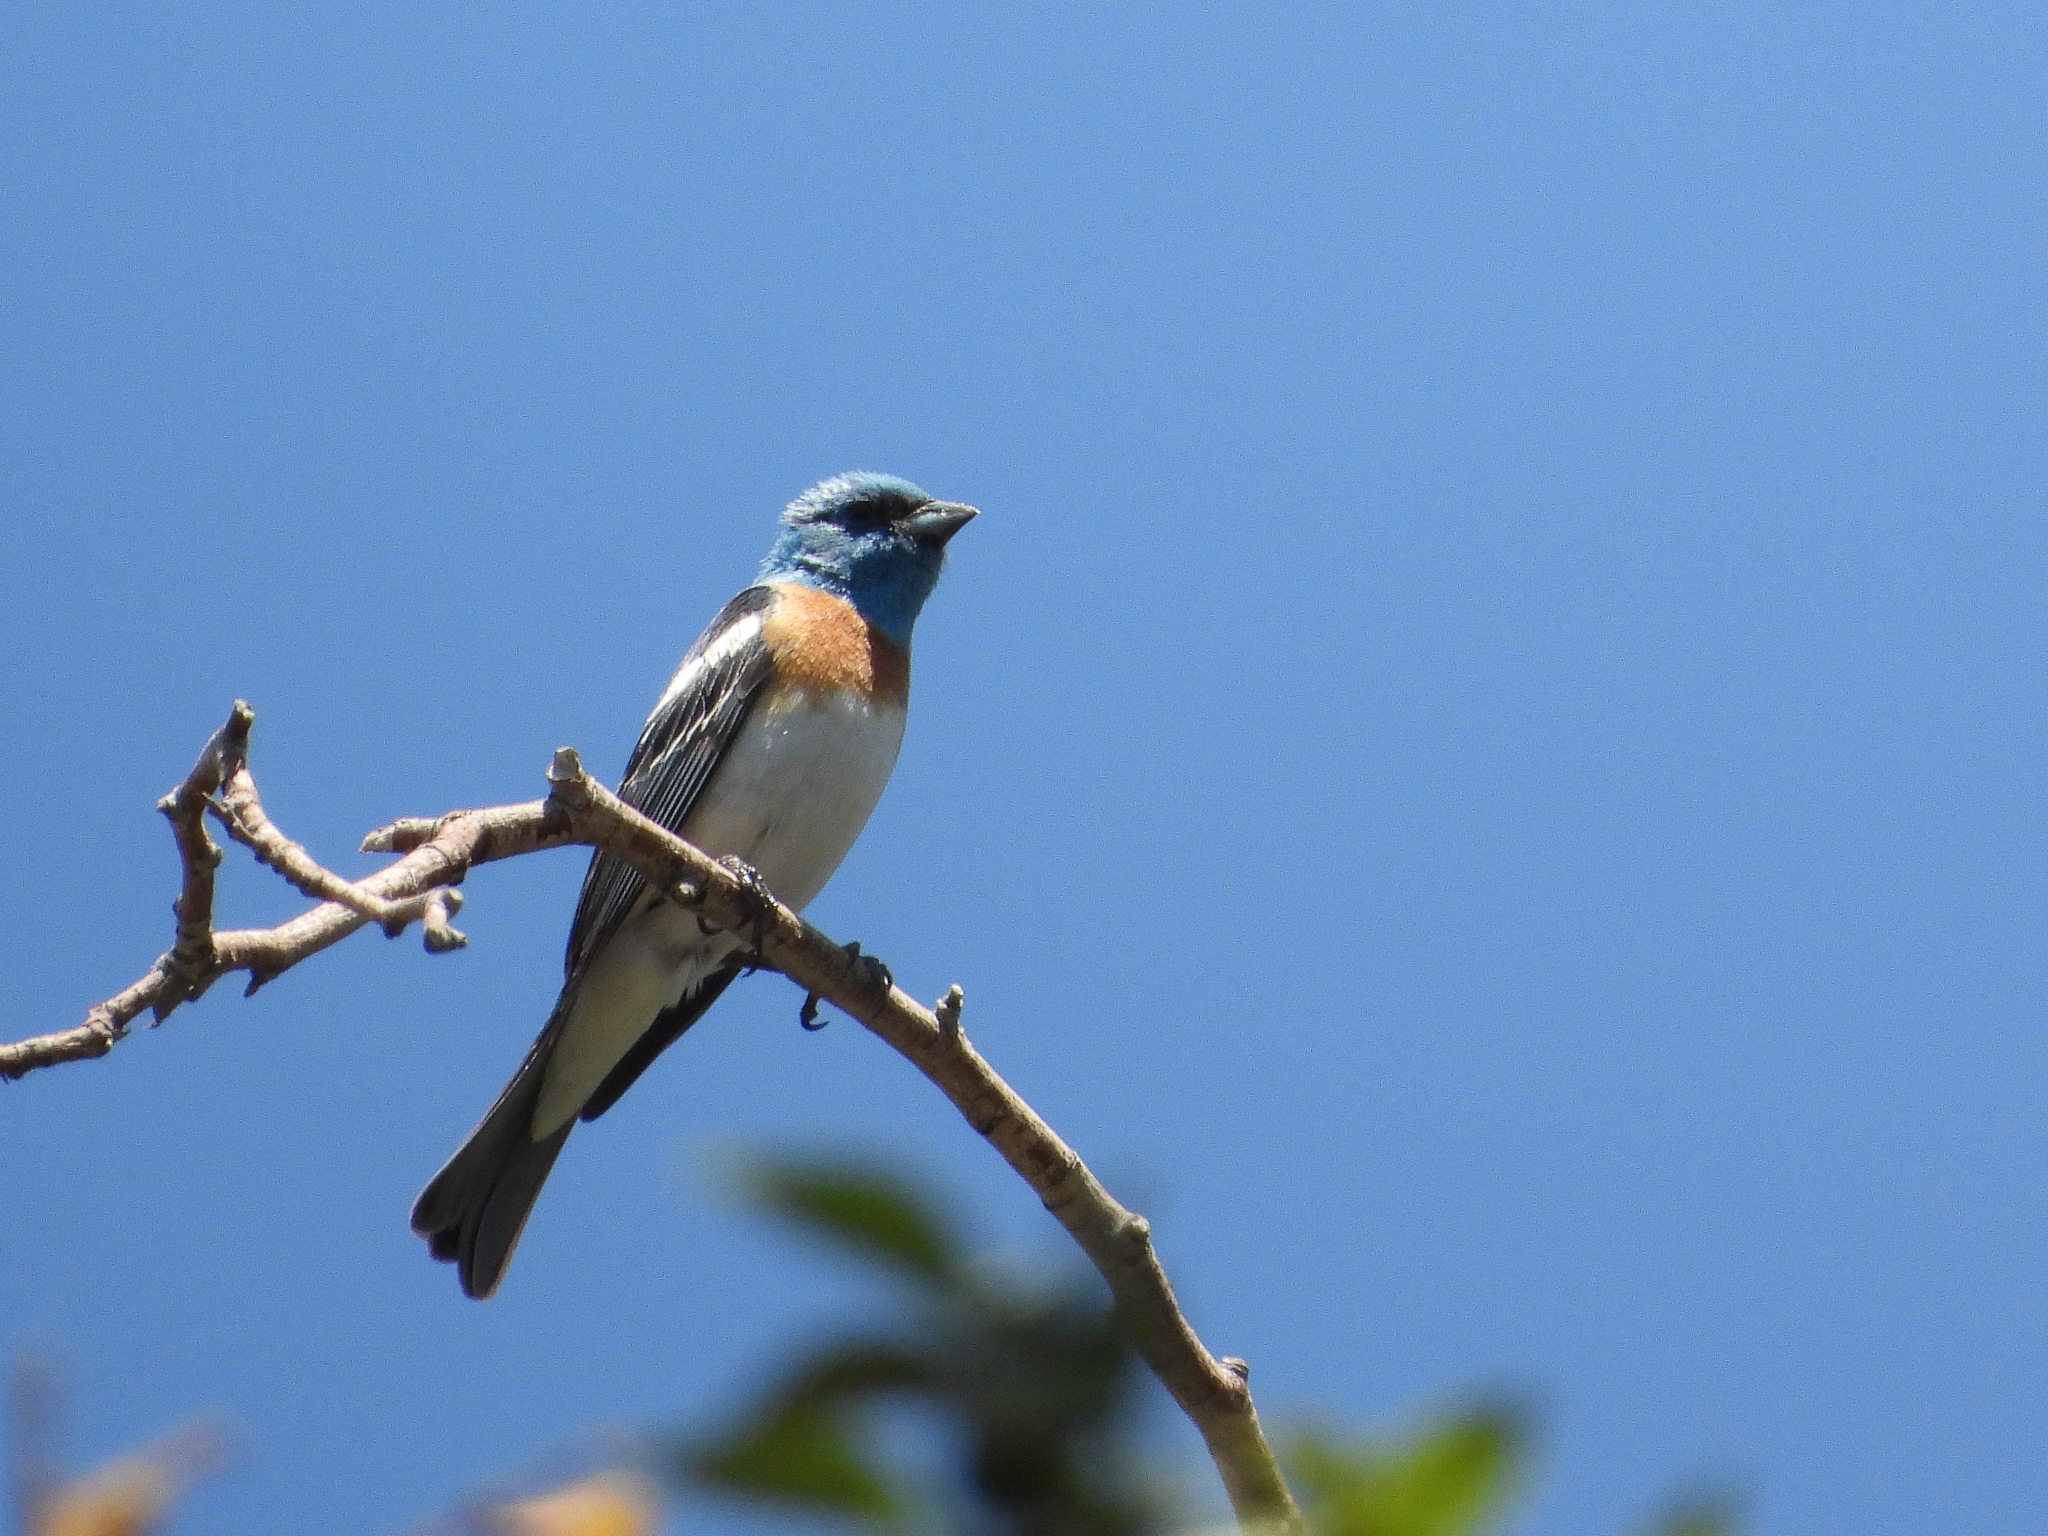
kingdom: Animalia
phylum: Chordata
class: Aves
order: Passeriformes
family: Cardinalidae
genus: Passerina
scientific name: Passerina amoena
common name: Lazuli bunting
